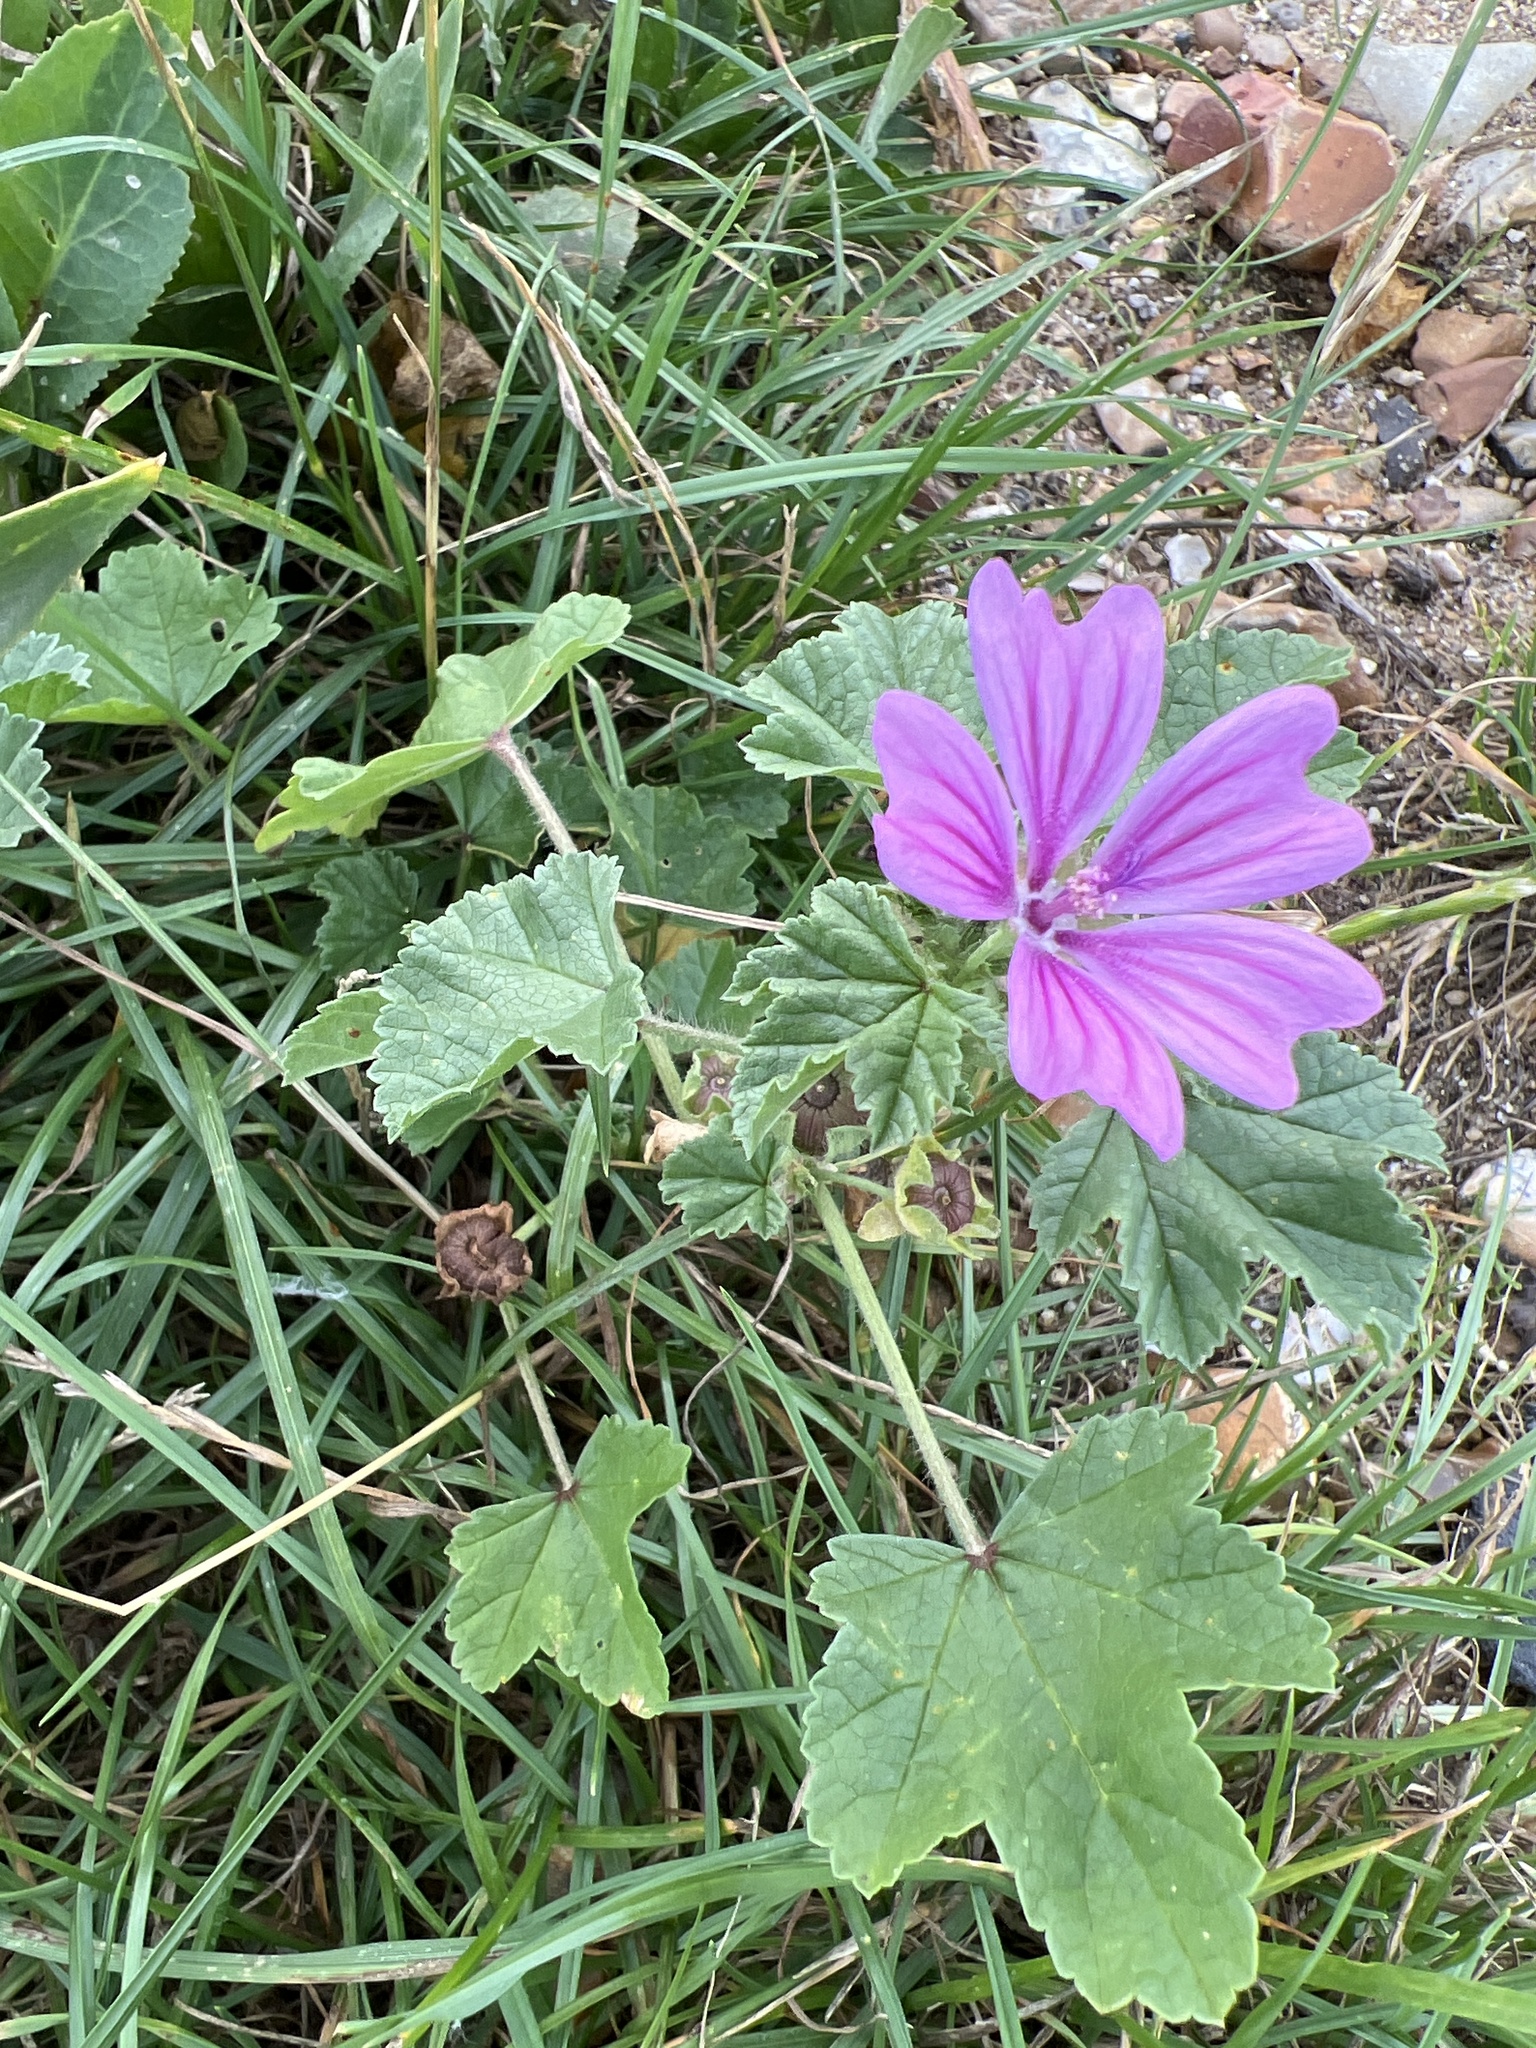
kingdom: Plantae
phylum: Tracheophyta
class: Magnoliopsida
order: Malvales
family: Malvaceae
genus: Malva
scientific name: Malva sylvestris
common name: Common mallow
